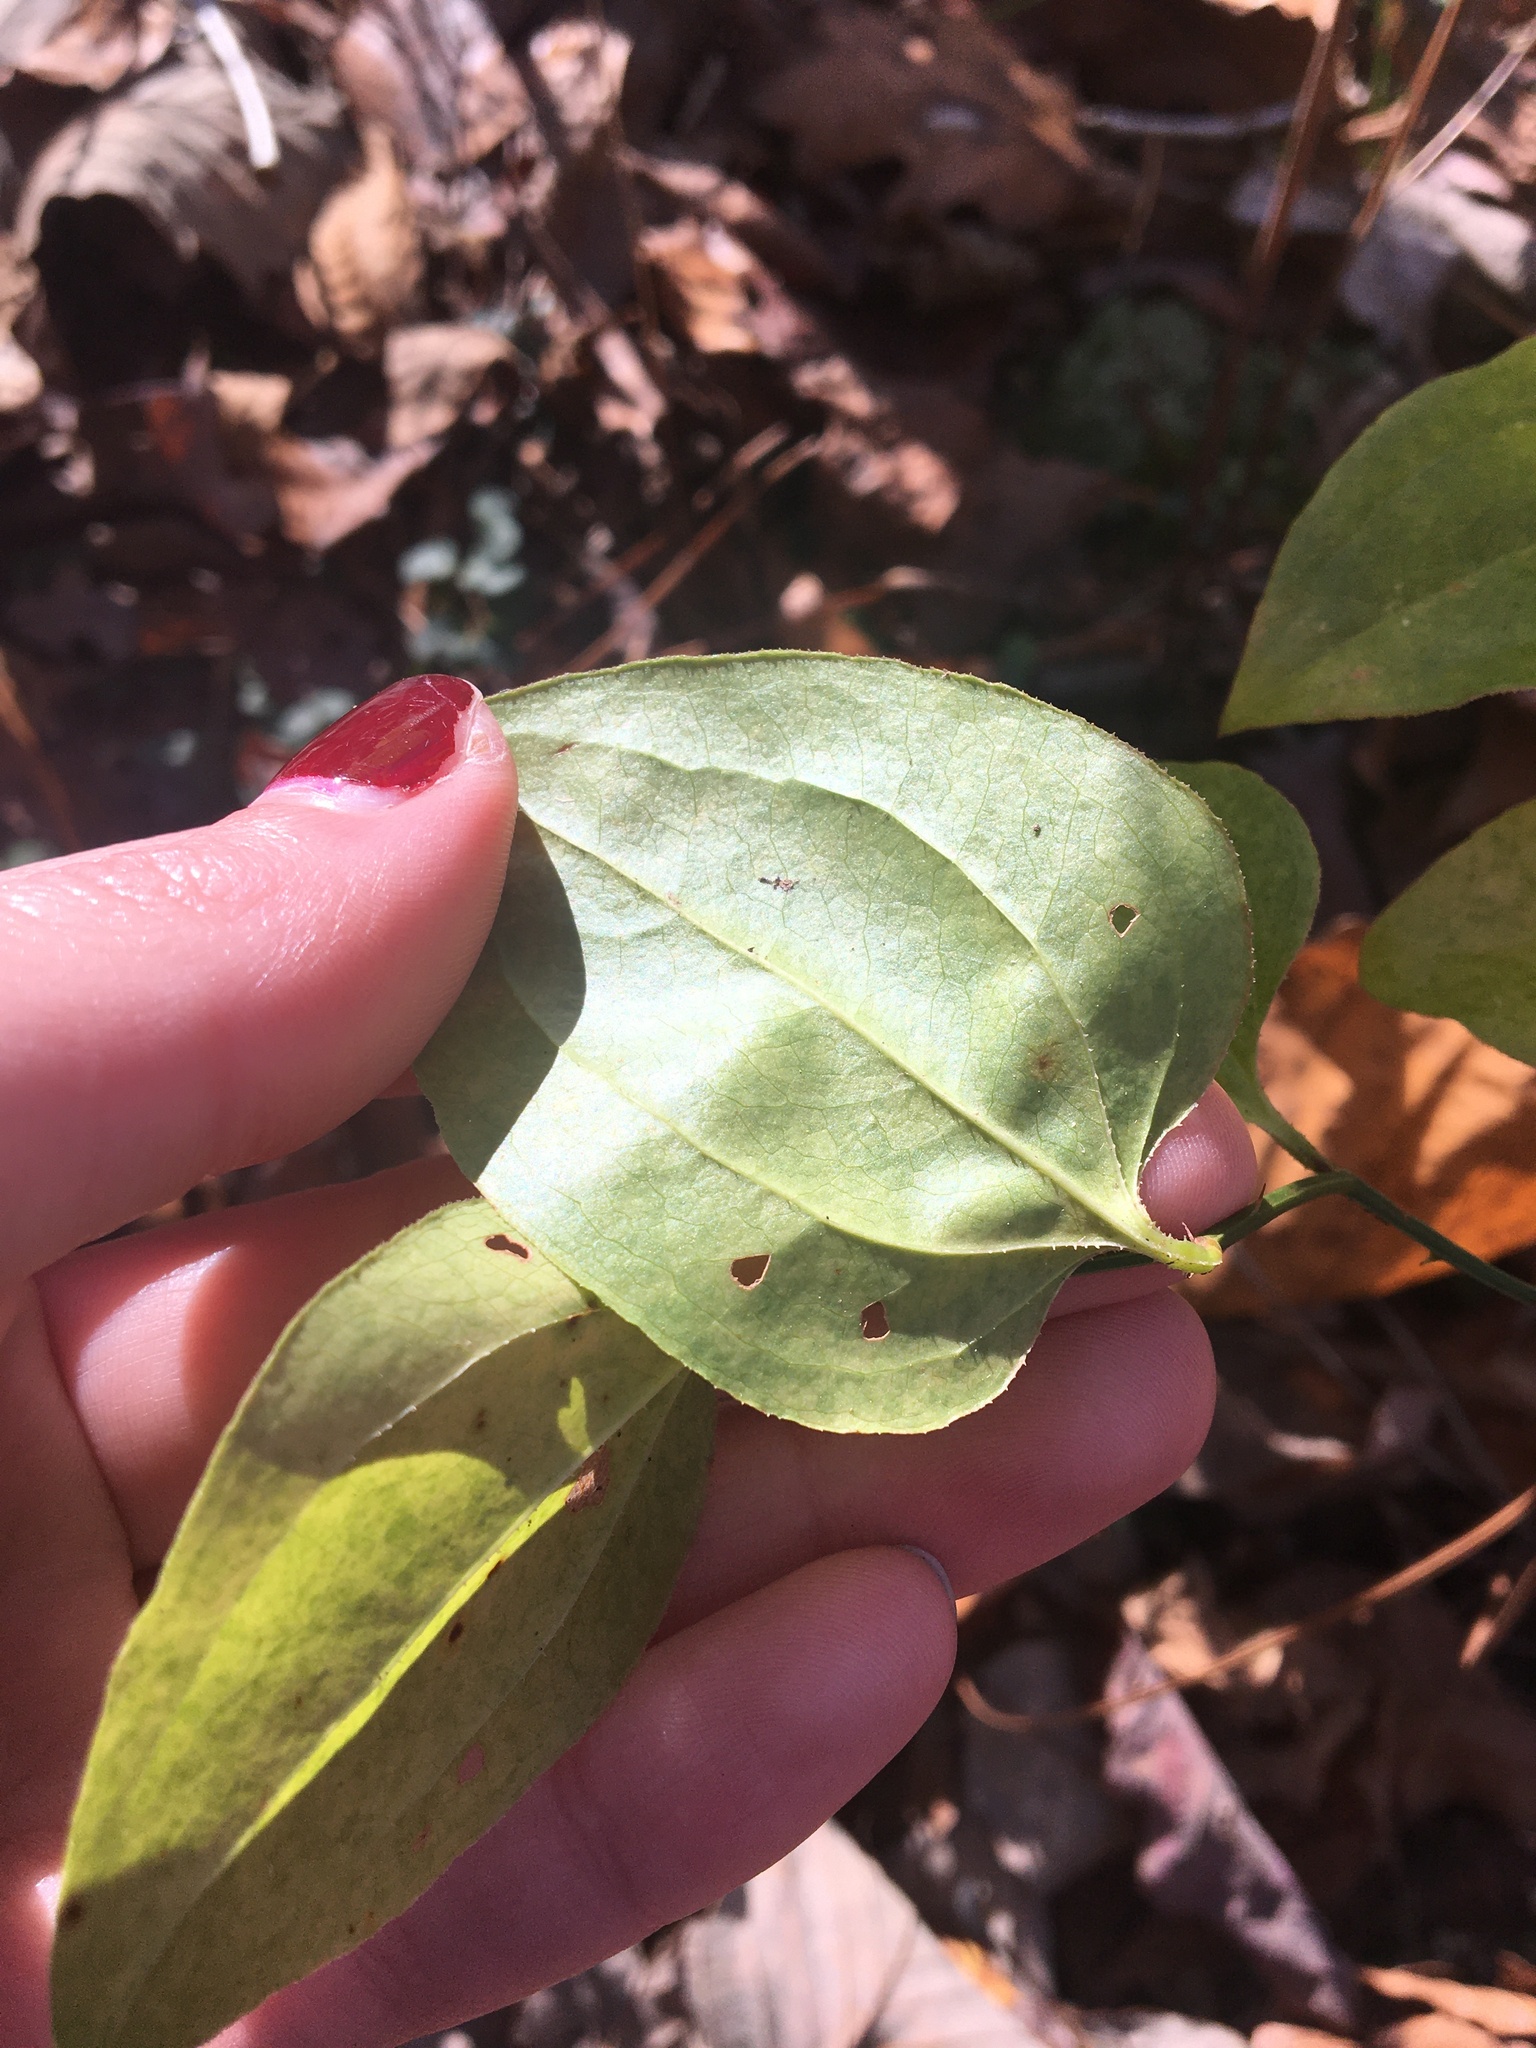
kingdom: Plantae
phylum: Tracheophyta
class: Liliopsida
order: Liliales
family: Smilacaceae
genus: Smilax
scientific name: Smilax rotundifolia
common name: Bullbriar
